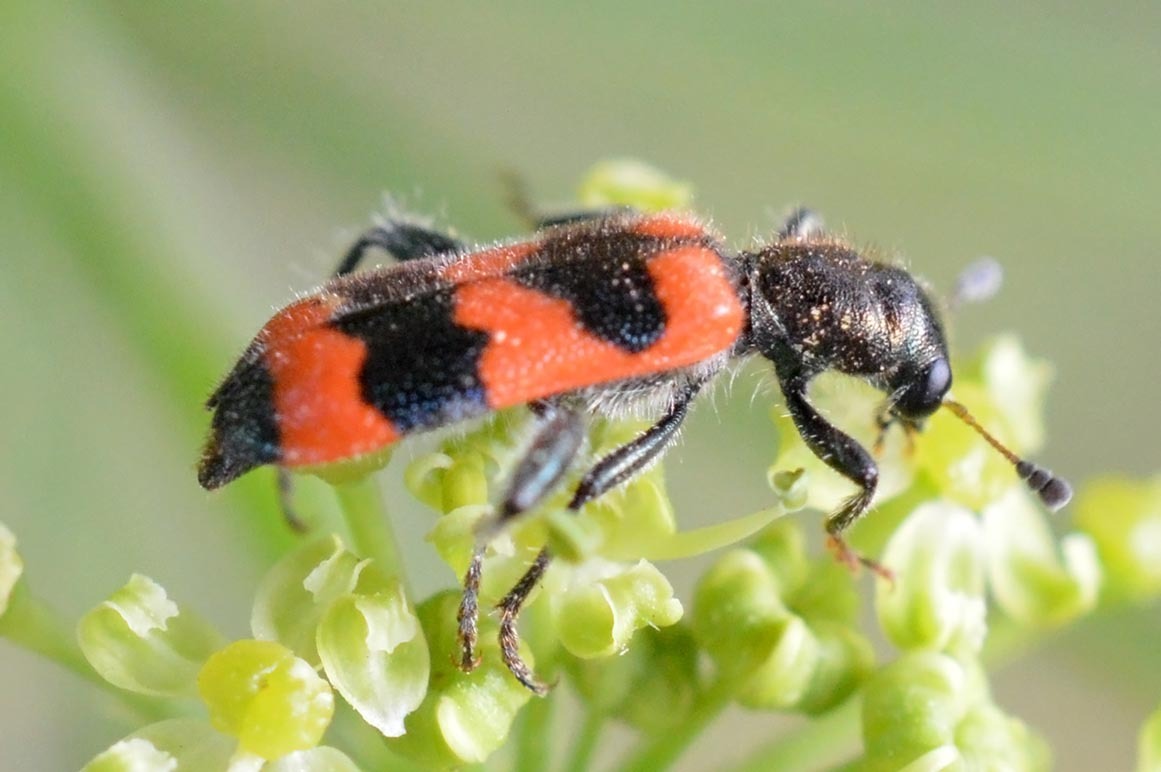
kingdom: Animalia
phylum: Arthropoda
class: Insecta
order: Coleoptera
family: Cleridae
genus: Trichodes
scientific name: Trichodes apiarius
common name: Bee-eating beetle
